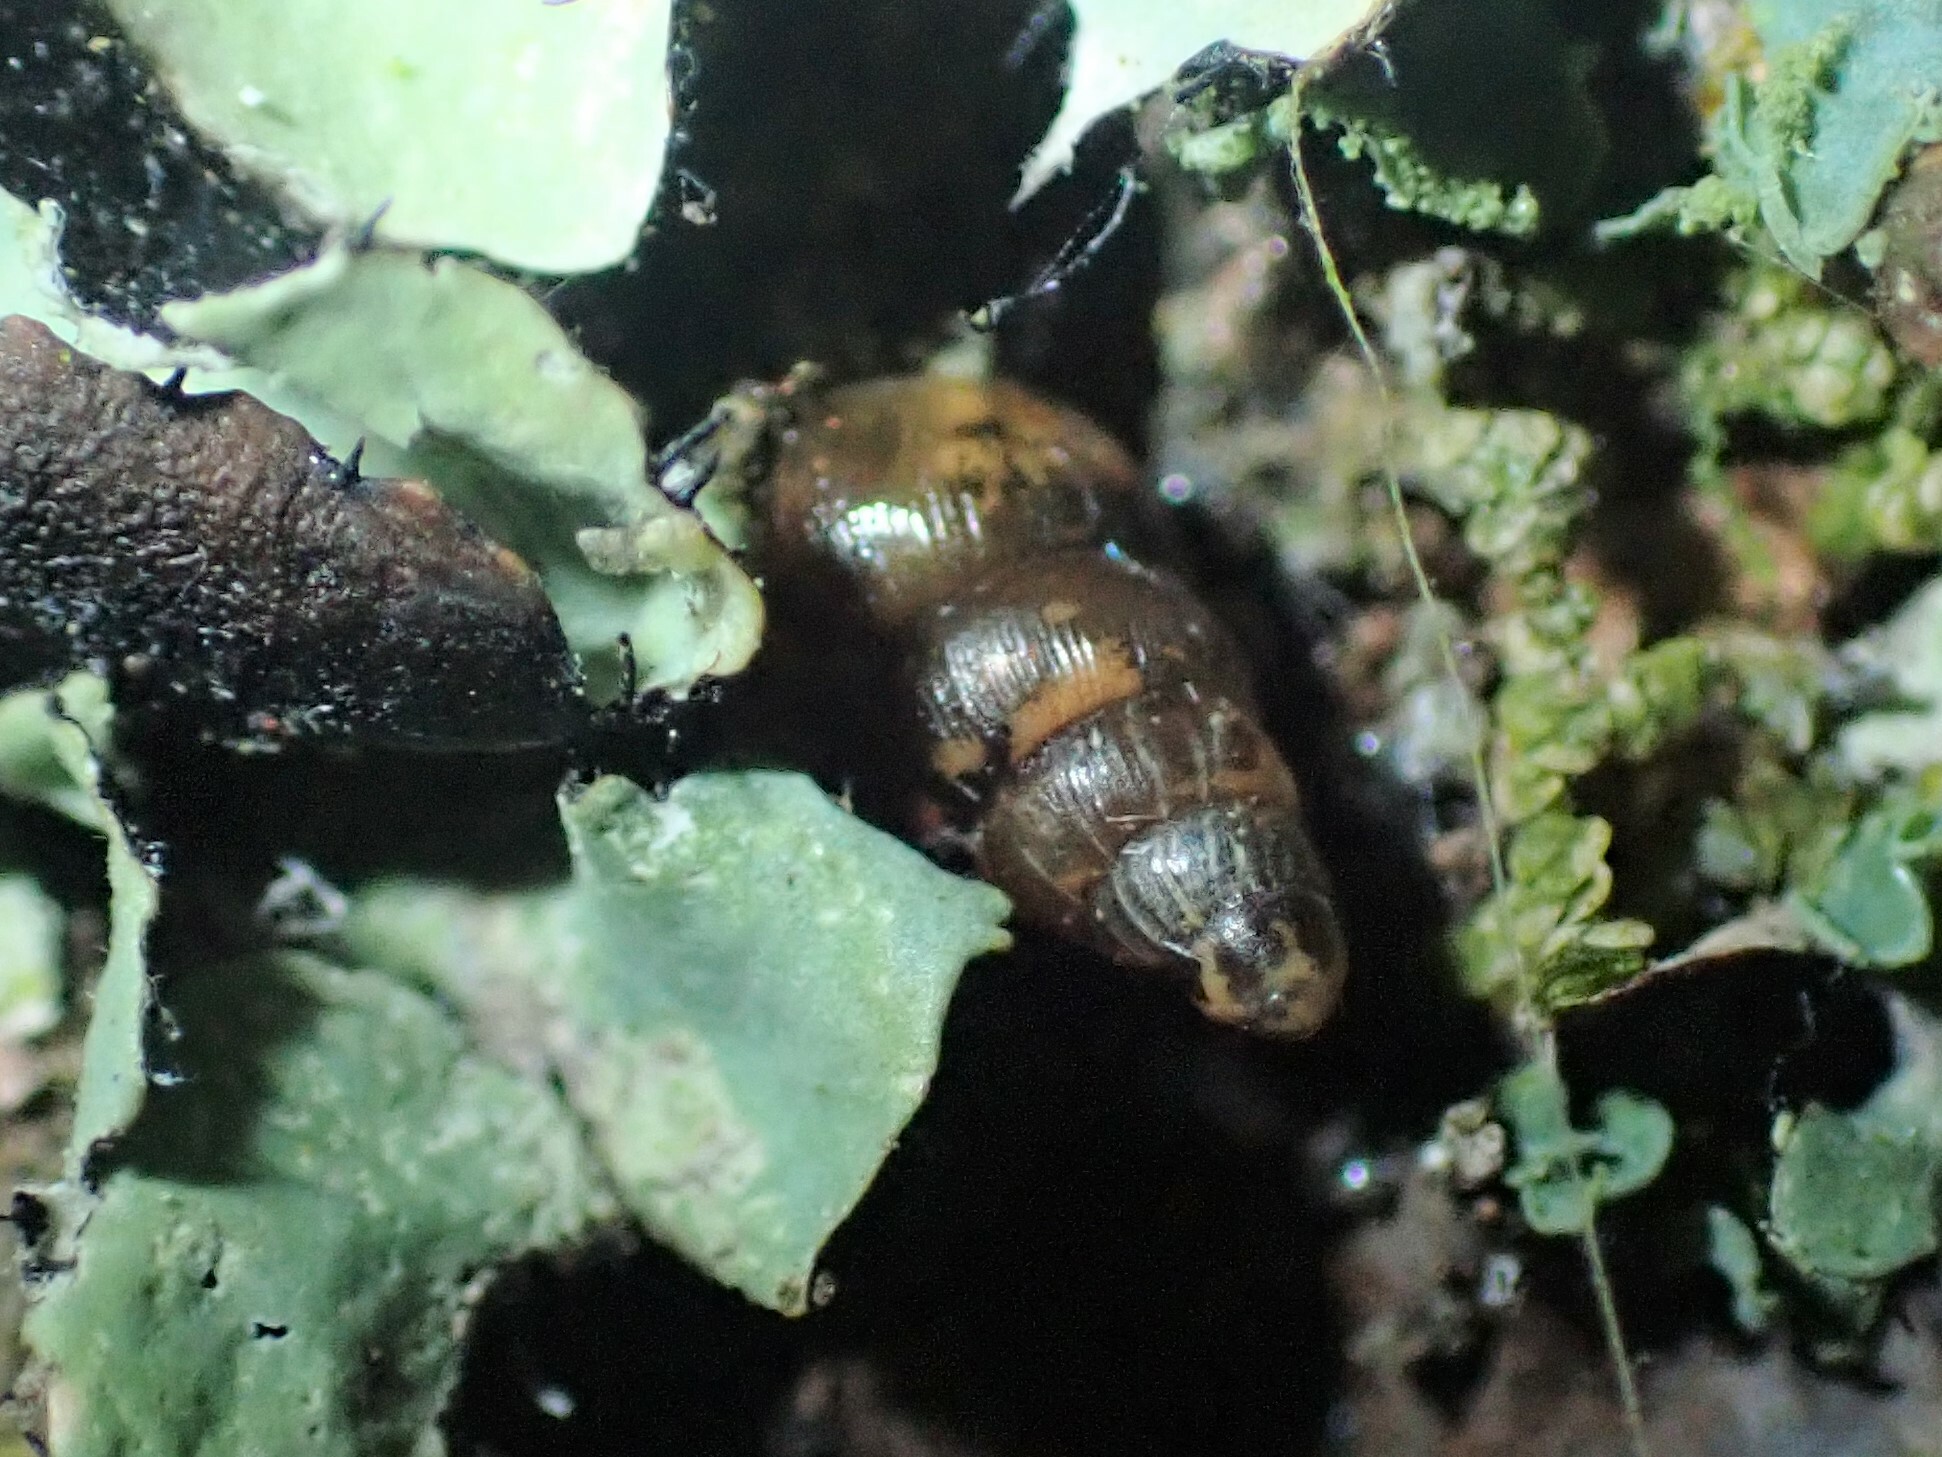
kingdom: Animalia
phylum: Mollusca
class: Gastropoda
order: Stylommatophora
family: Clausiliidae
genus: Balea
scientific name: Balea heydeni
